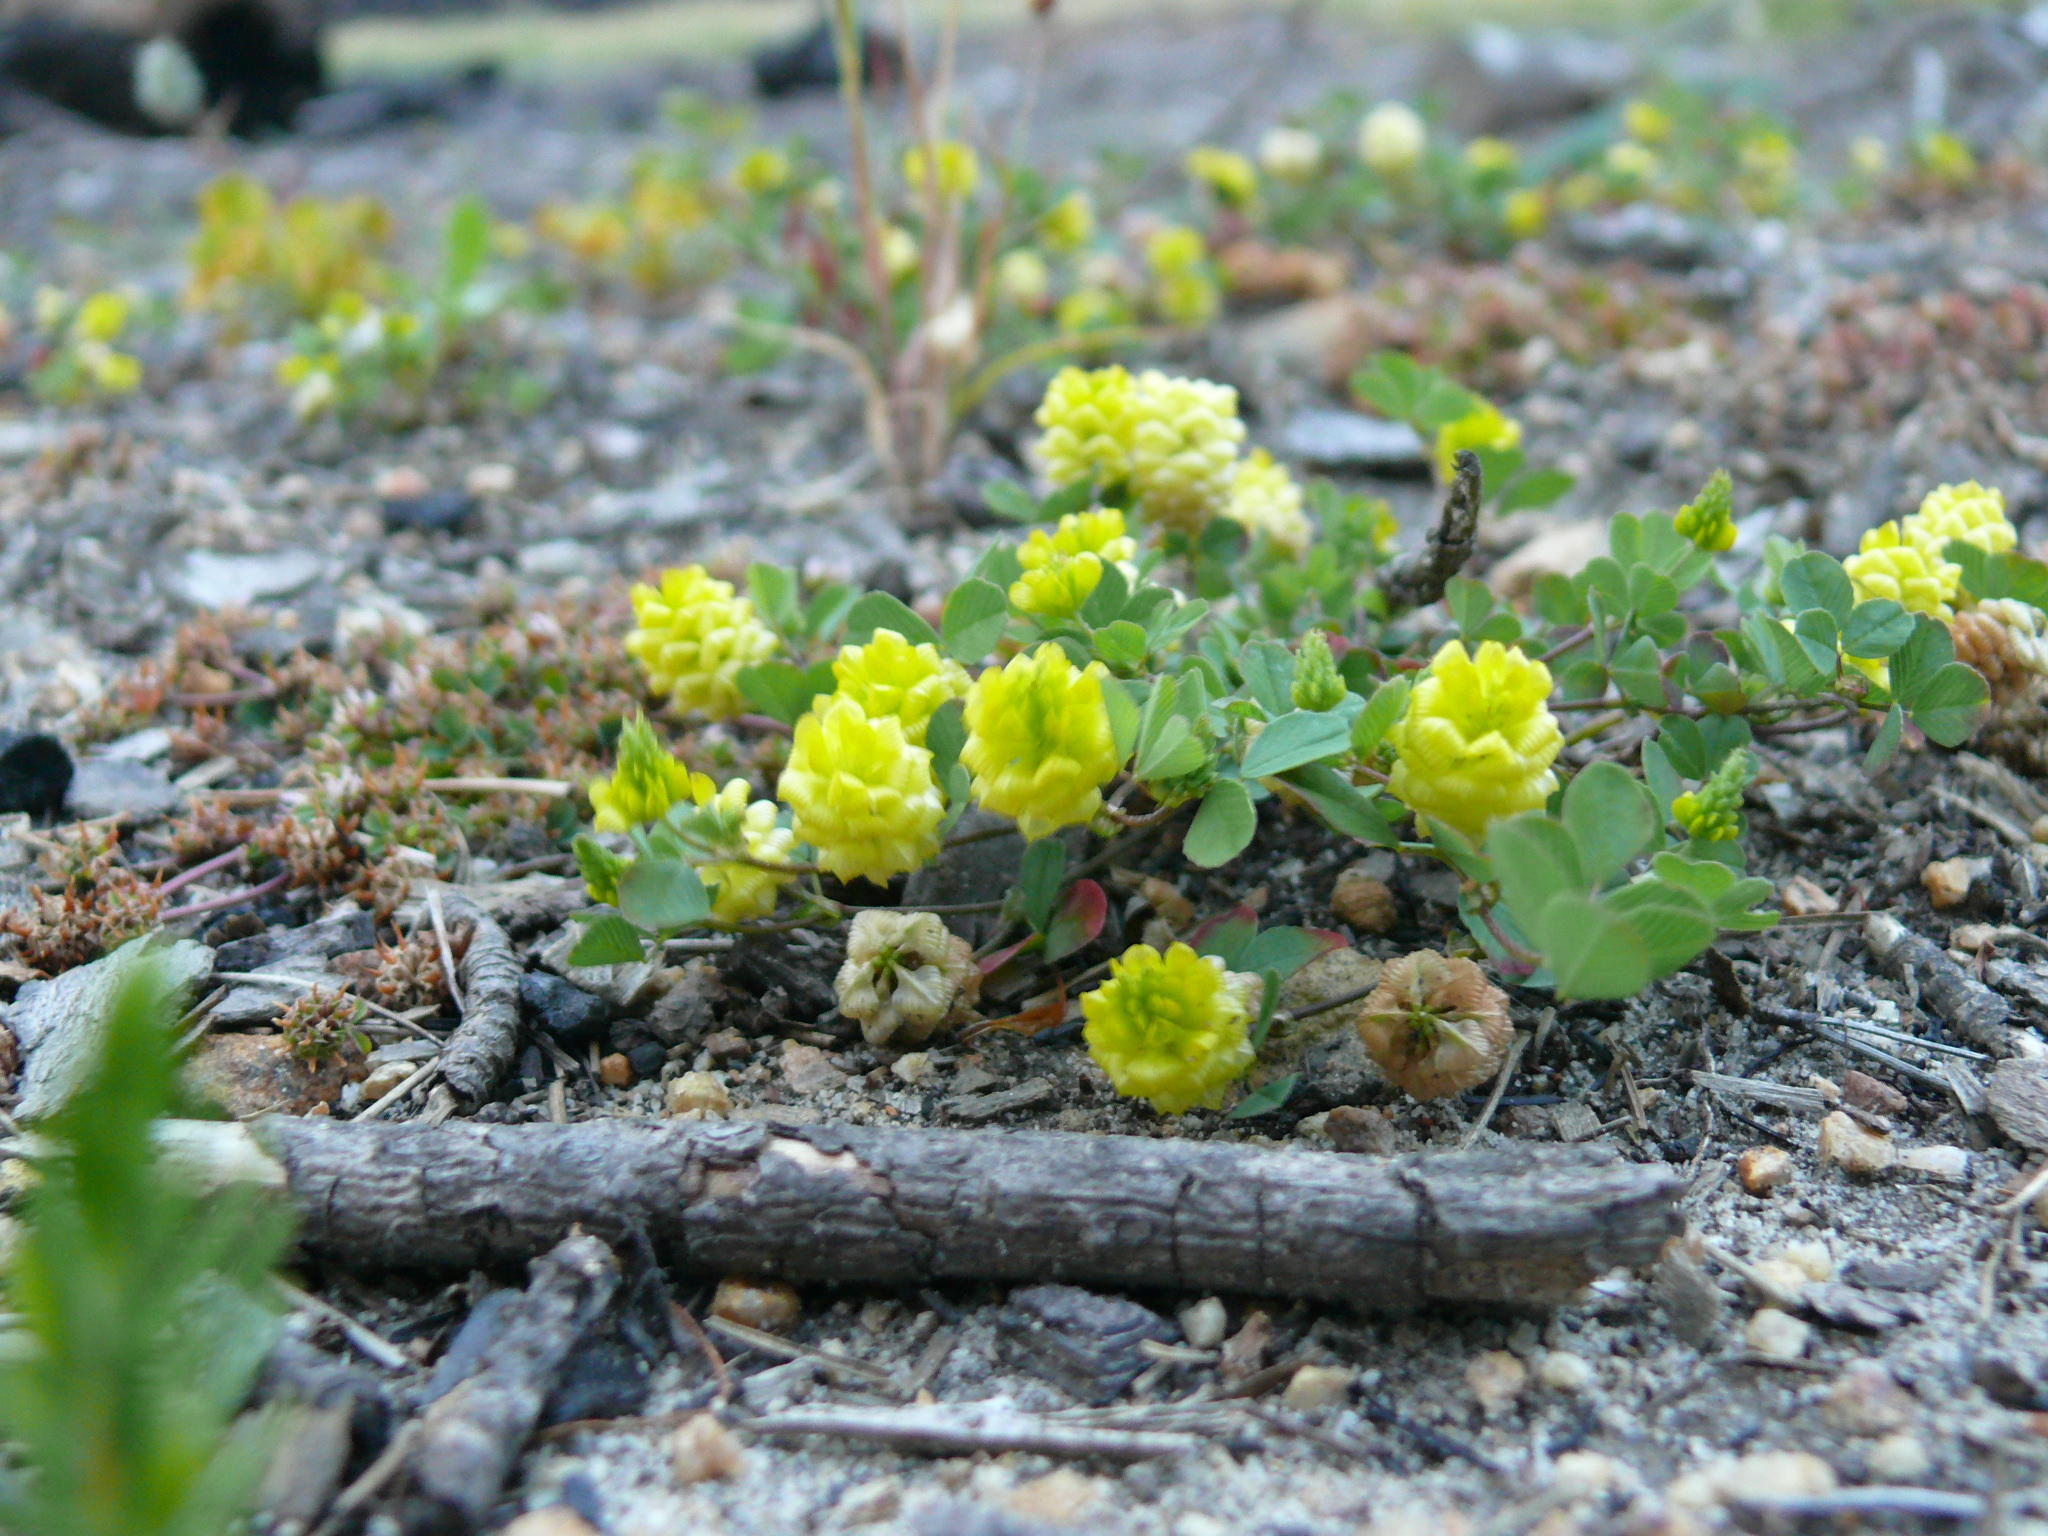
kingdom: Plantae
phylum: Tracheophyta
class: Magnoliopsida
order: Fabales
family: Fabaceae
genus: Trifolium
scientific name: Trifolium campestre
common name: Field clover
